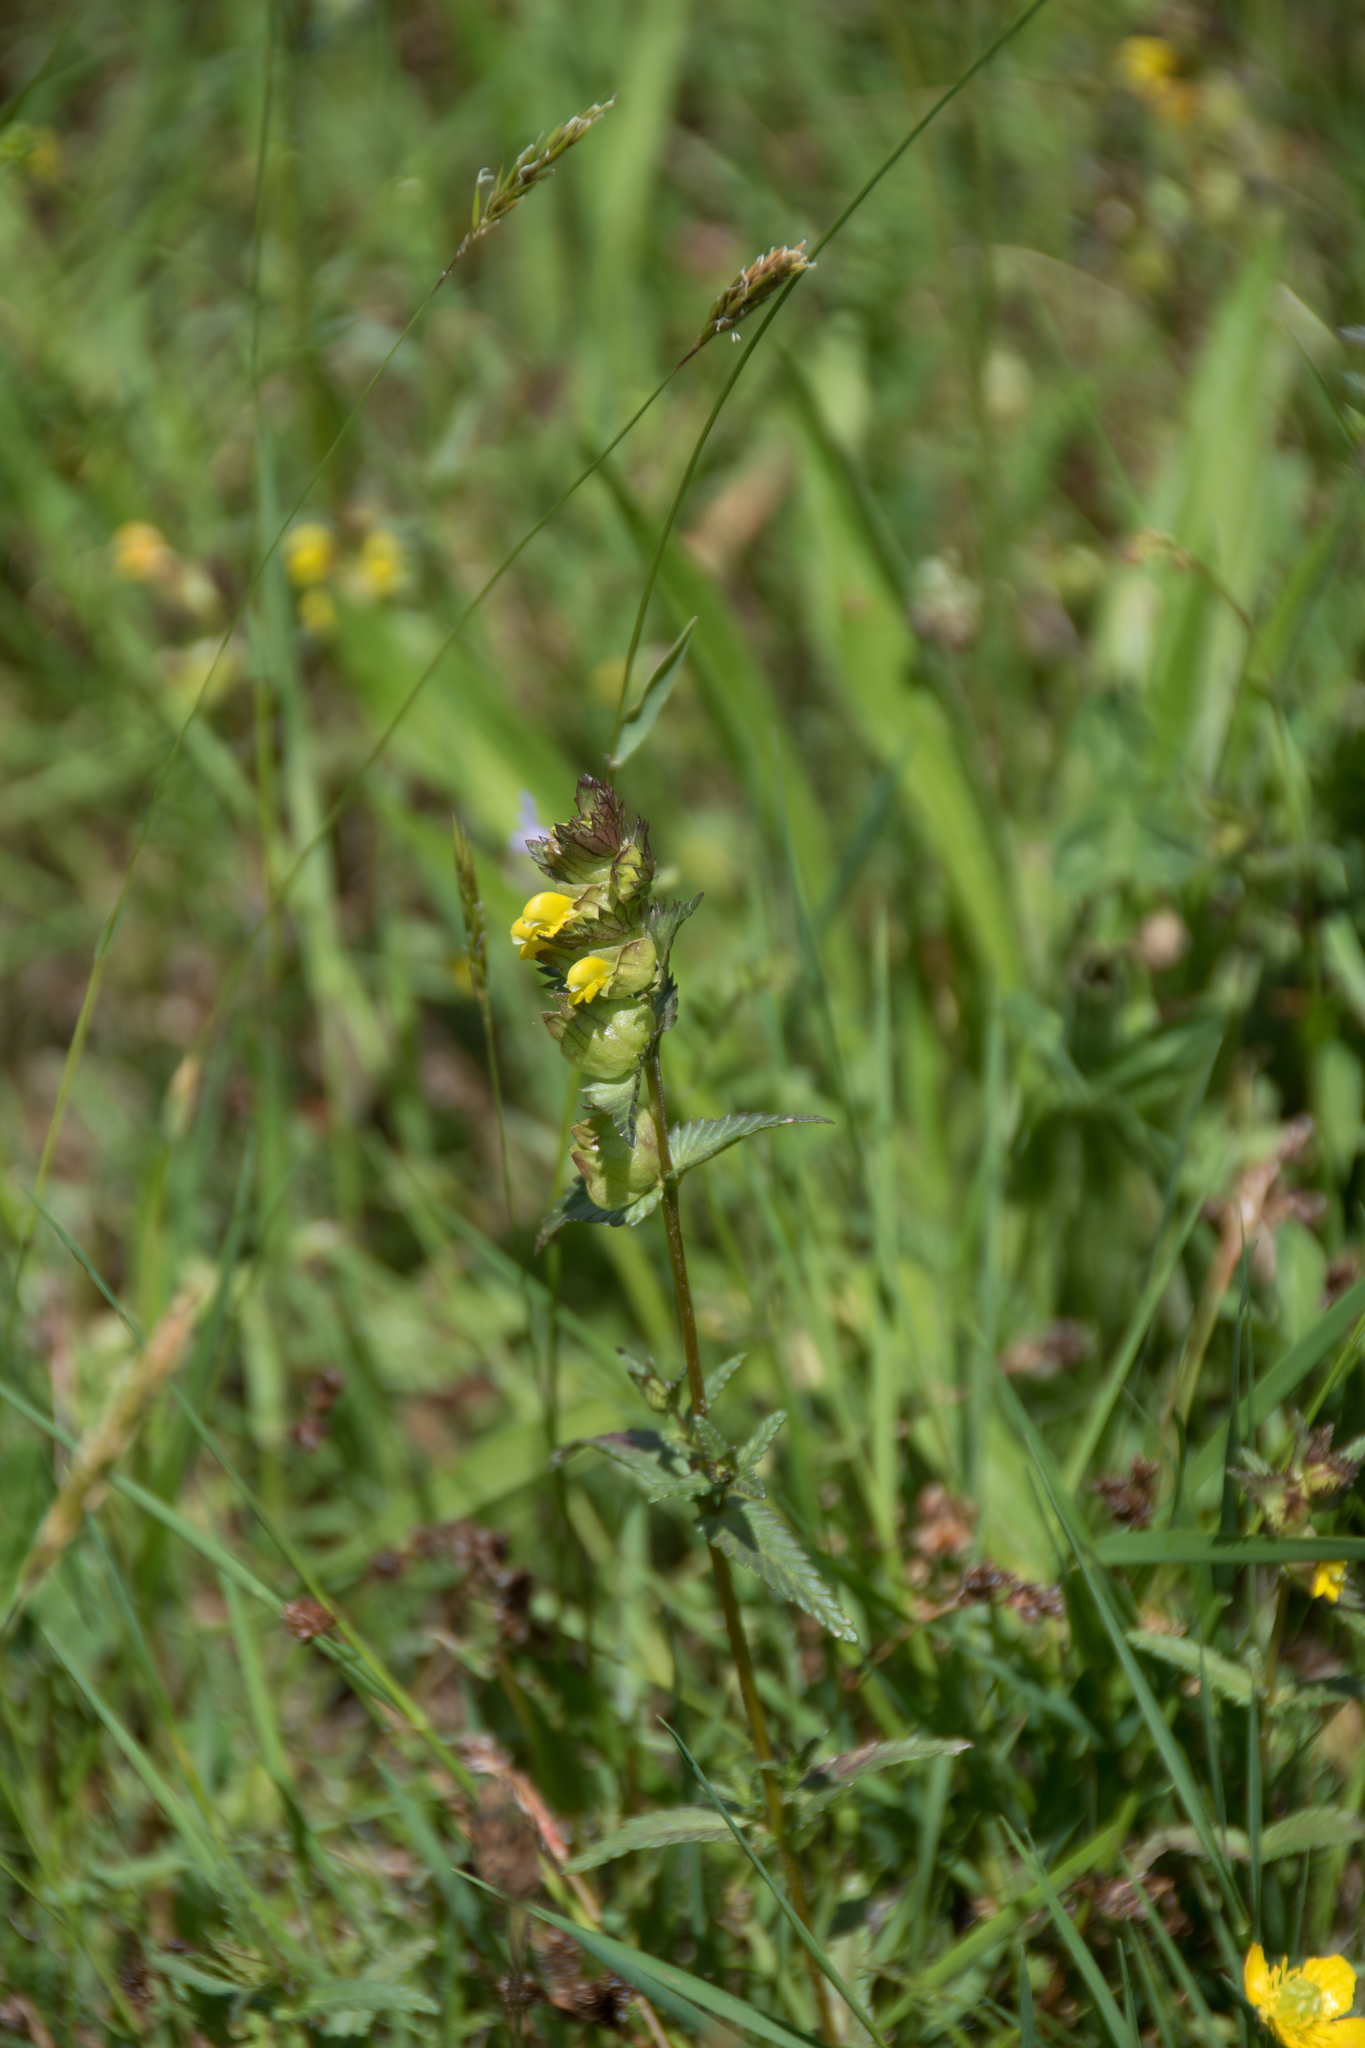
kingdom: Plantae
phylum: Tracheophyta
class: Magnoliopsida
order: Lamiales
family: Orobanchaceae
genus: Rhinanthus
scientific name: Rhinanthus minor
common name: Yellow-rattle
